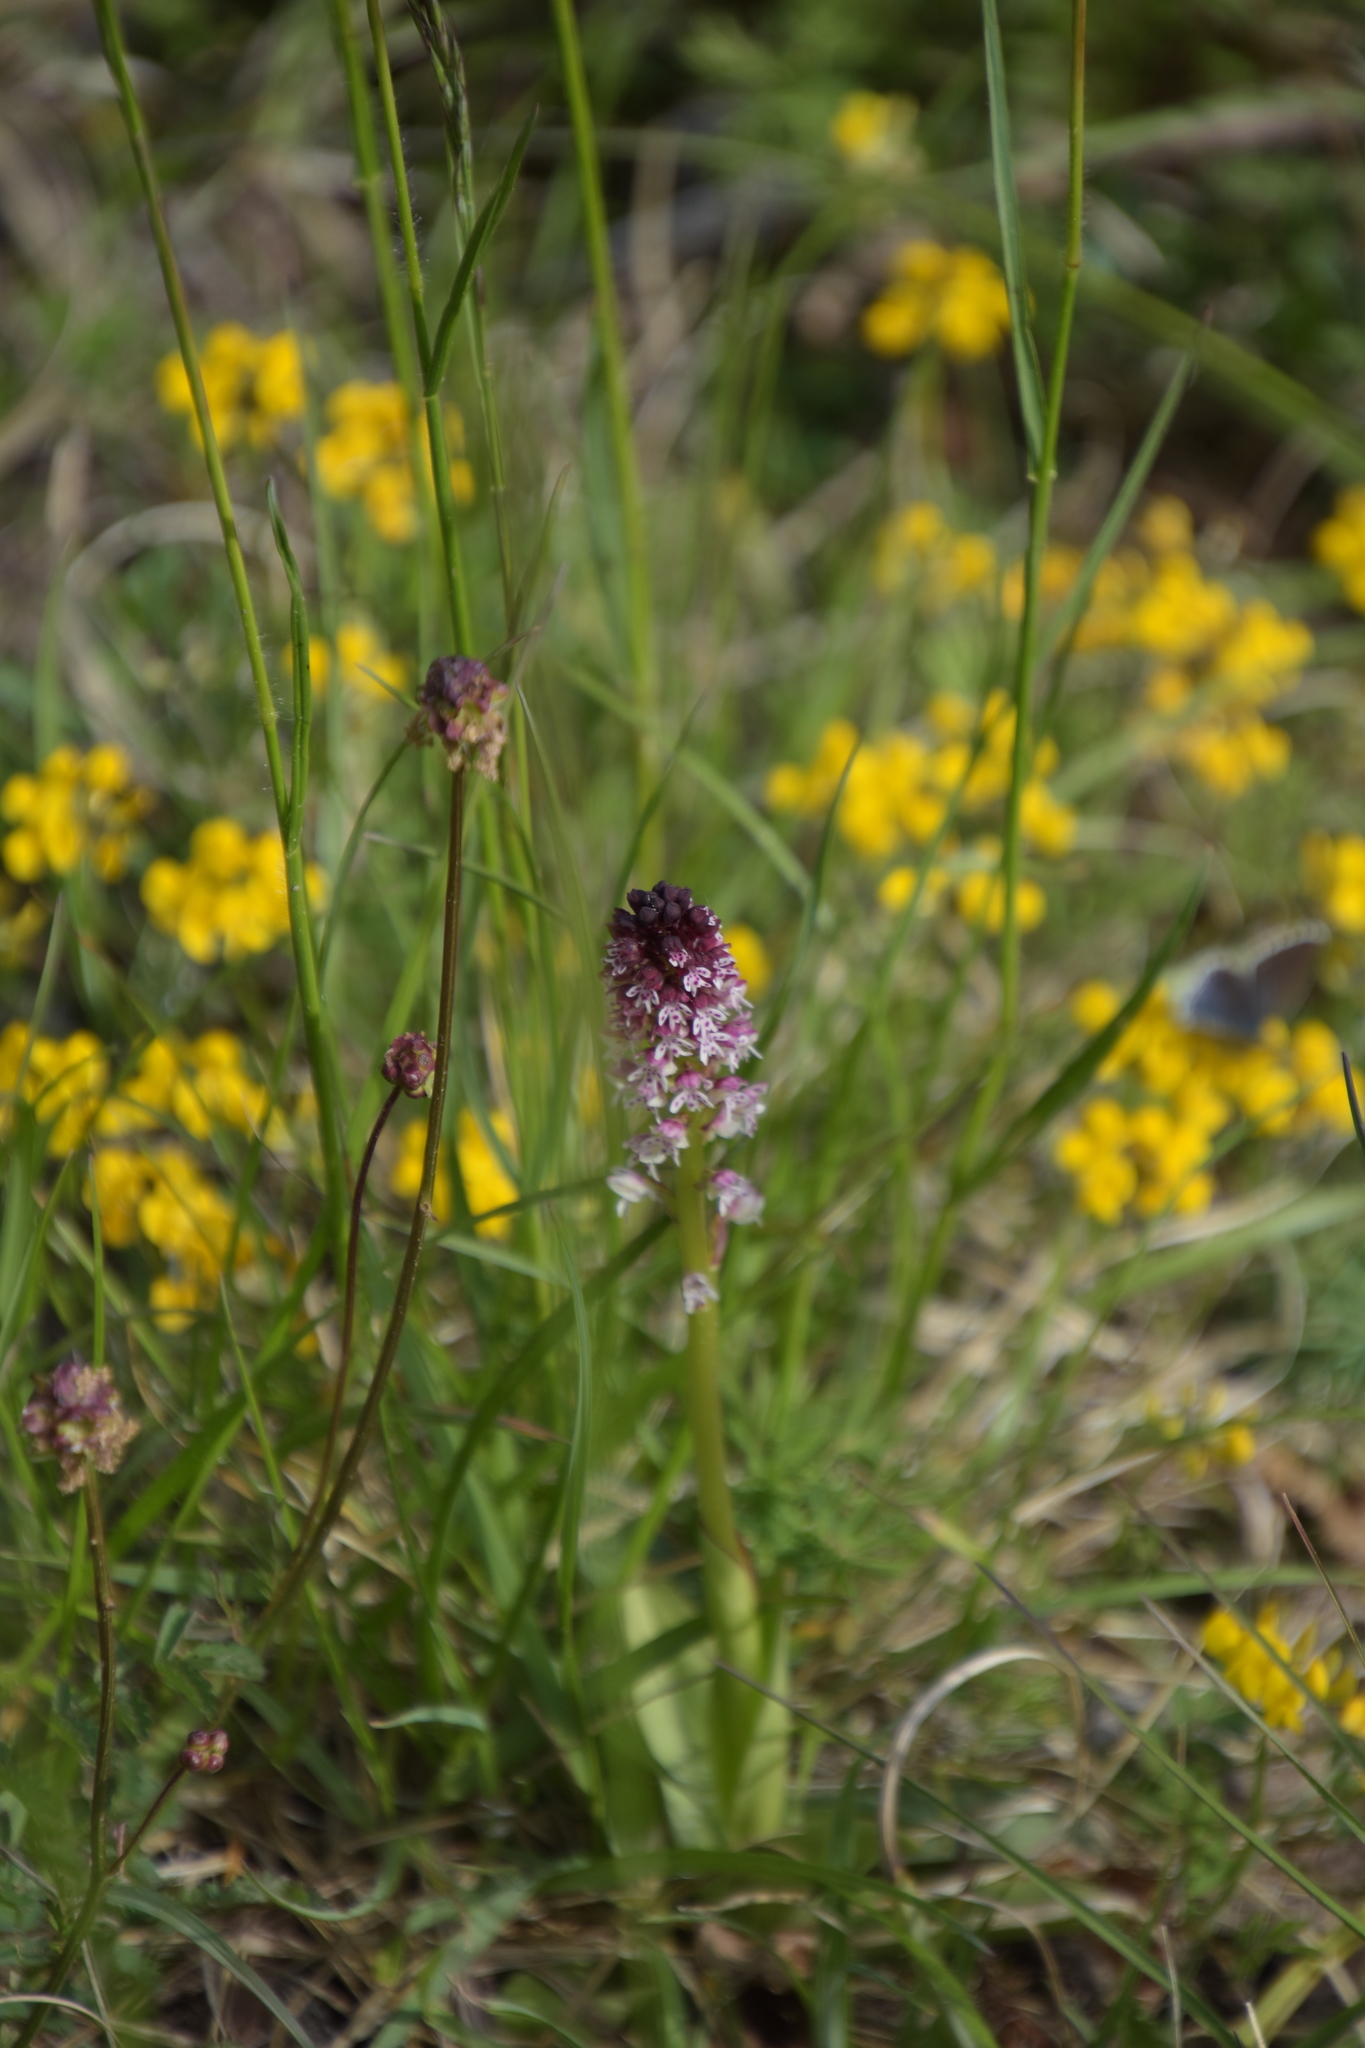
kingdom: Plantae
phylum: Tracheophyta
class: Liliopsida
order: Asparagales
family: Orchidaceae
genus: Neotinea
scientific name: Neotinea ustulata
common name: Burnt orchid
